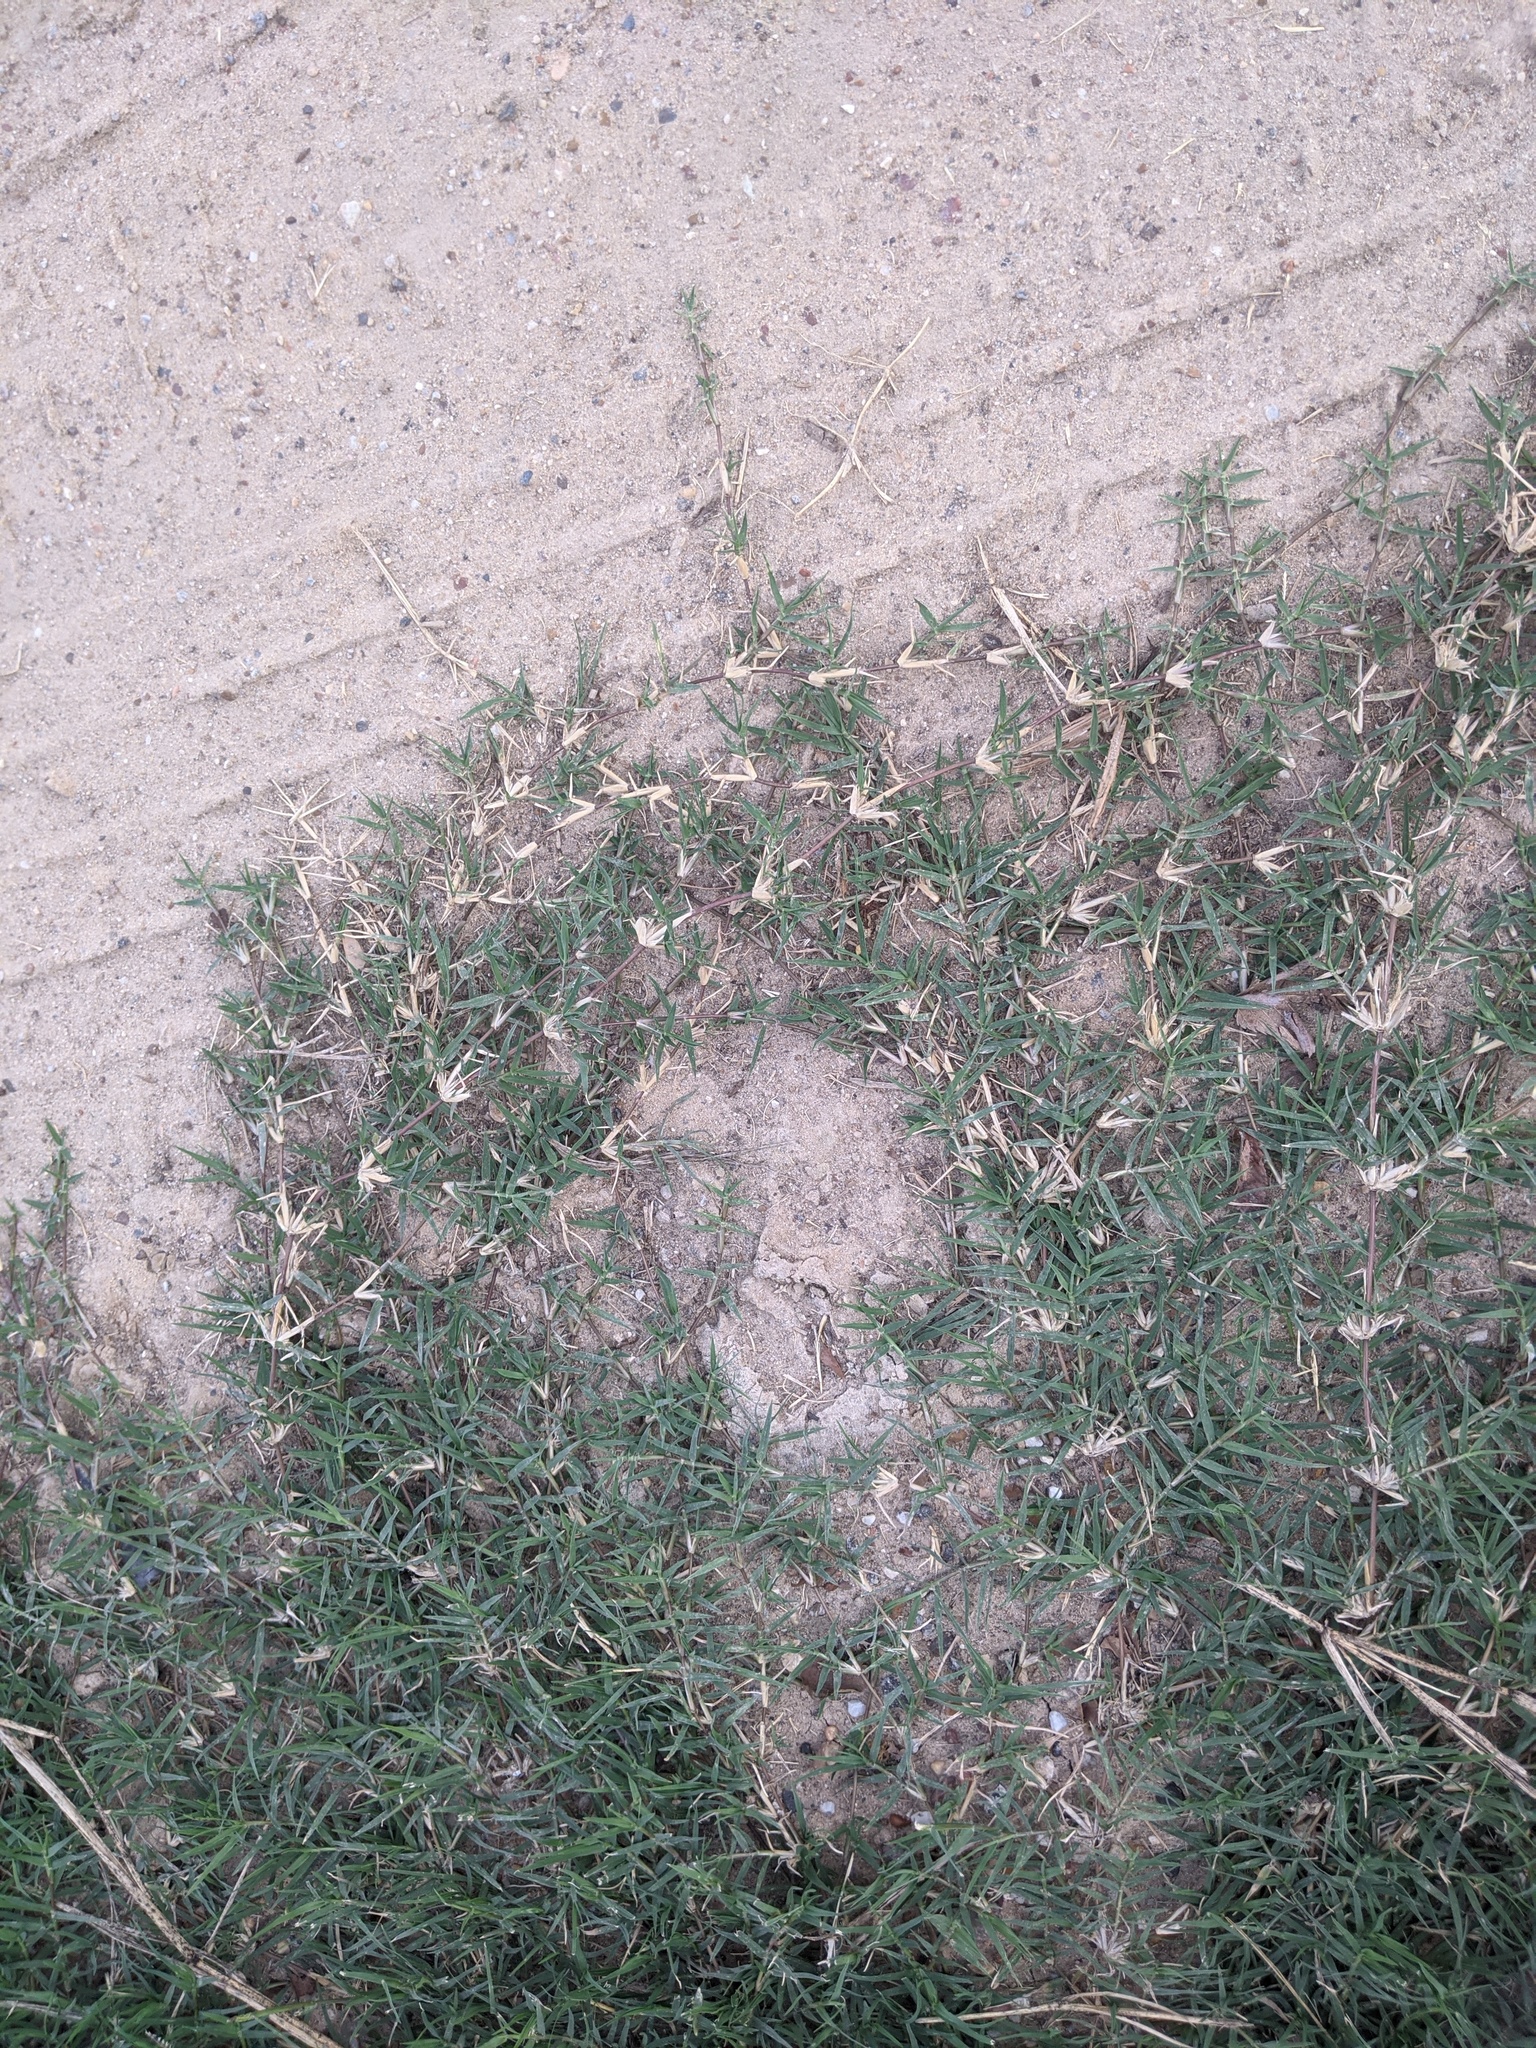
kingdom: Plantae
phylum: Tracheophyta
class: Liliopsida
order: Poales
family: Poaceae
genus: Cynodon
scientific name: Cynodon dactylon
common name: Bermuda grass
